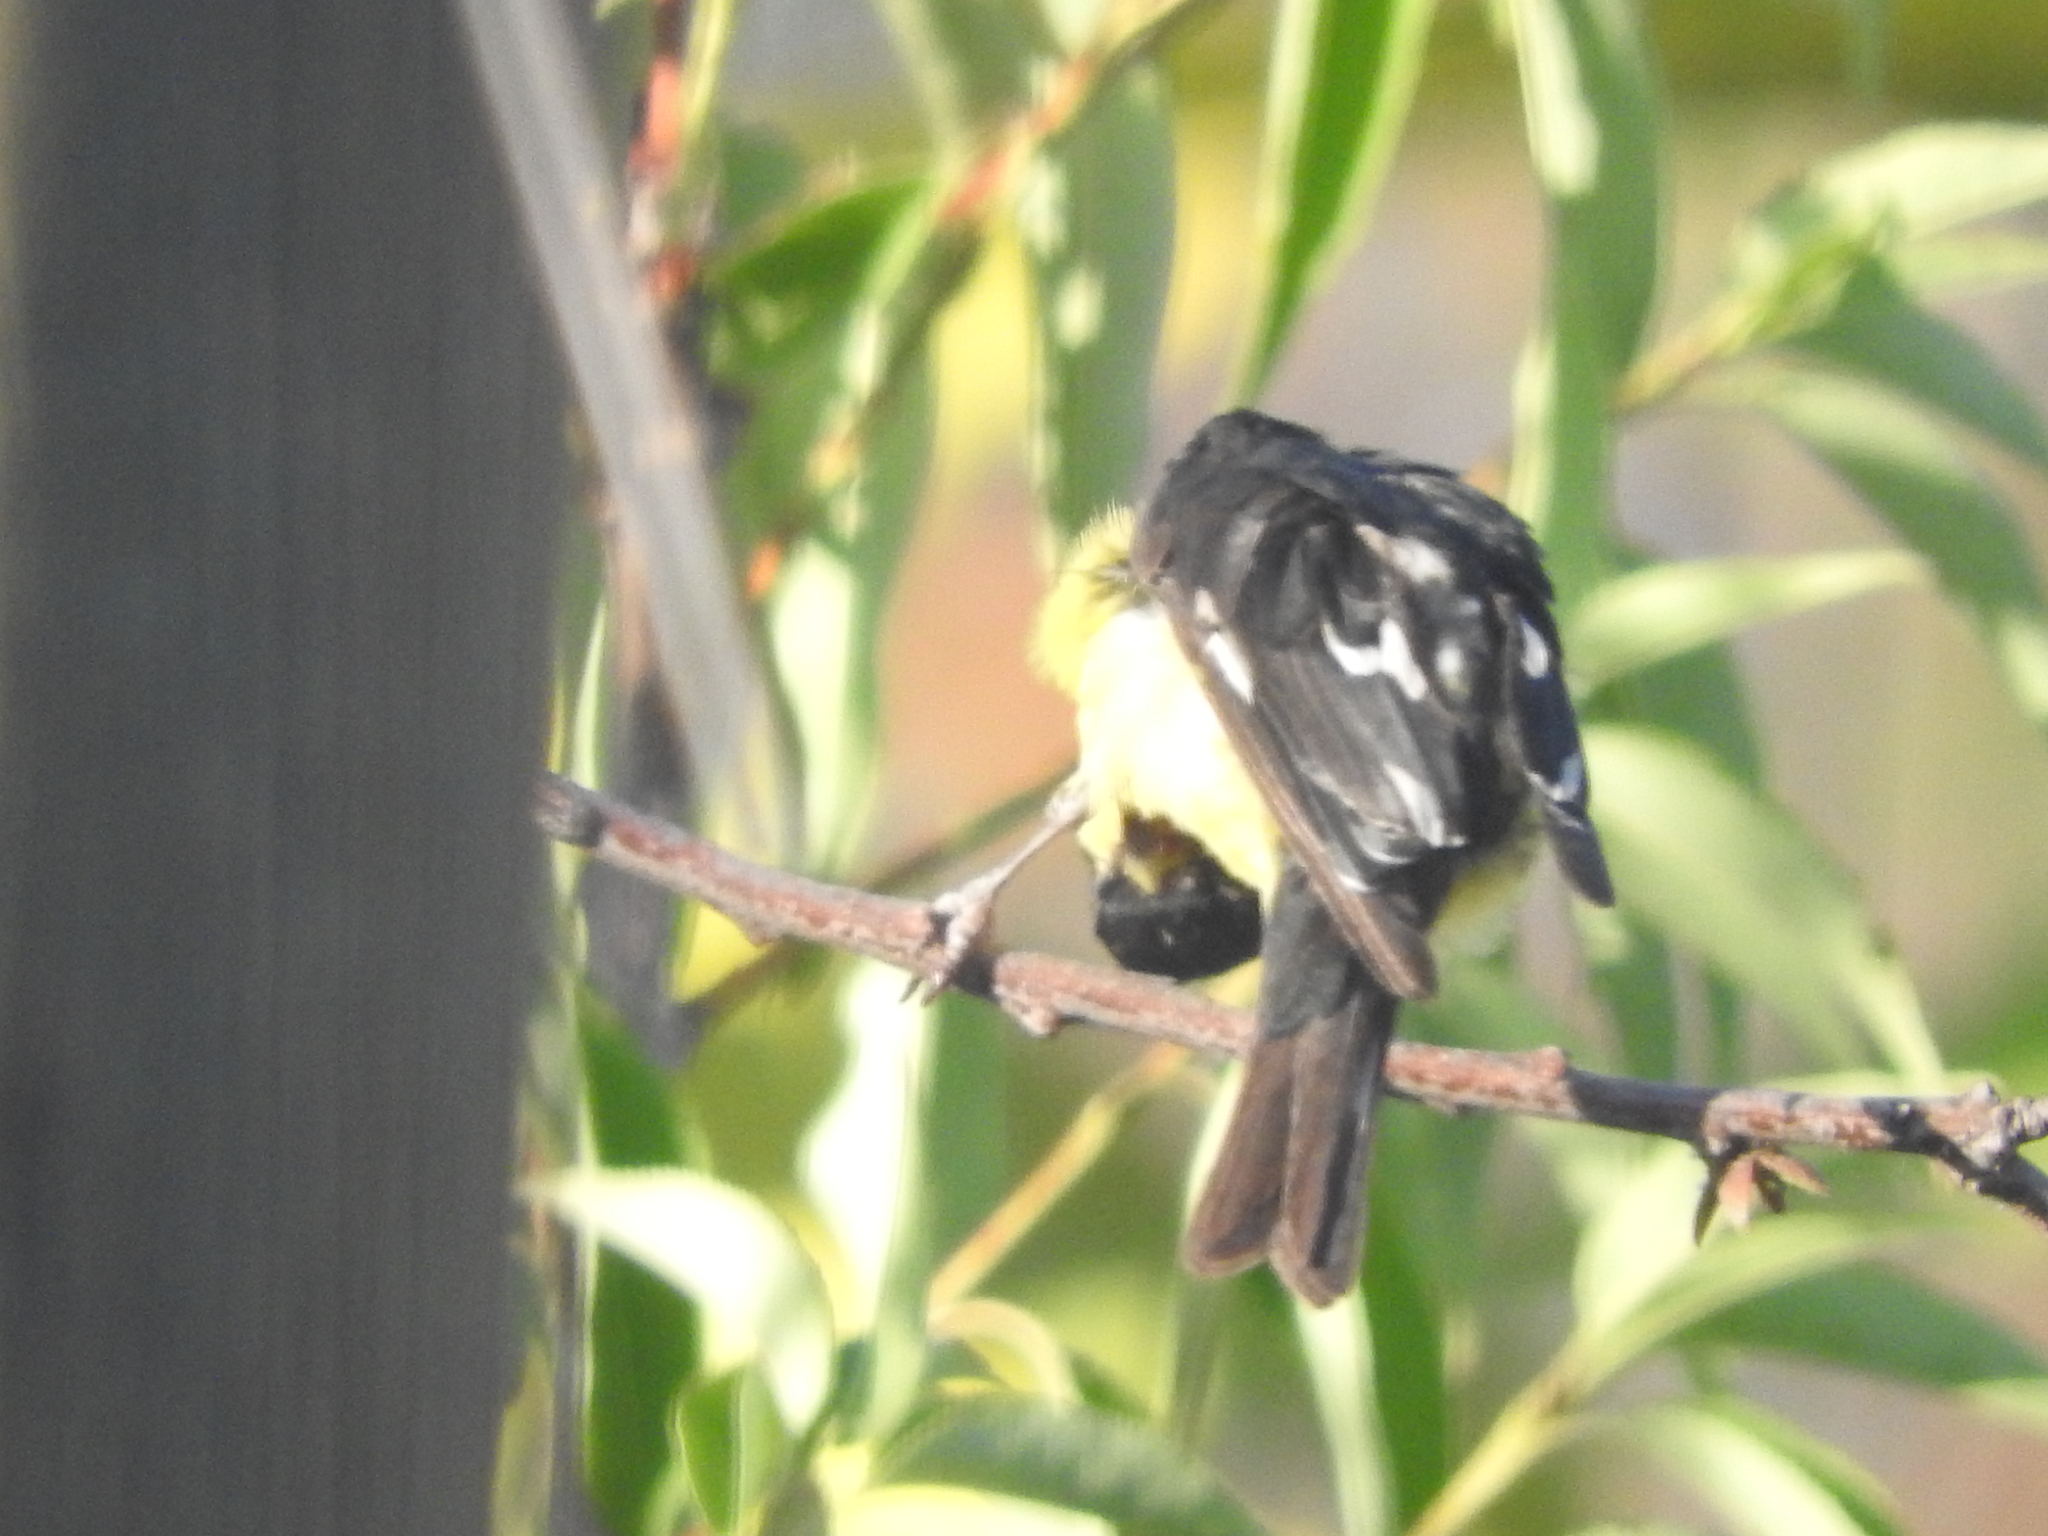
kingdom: Animalia
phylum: Chordata
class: Aves
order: Passeriformes
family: Fringillidae
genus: Spinus
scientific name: Spinus psaltria
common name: Lesser goldfinch
